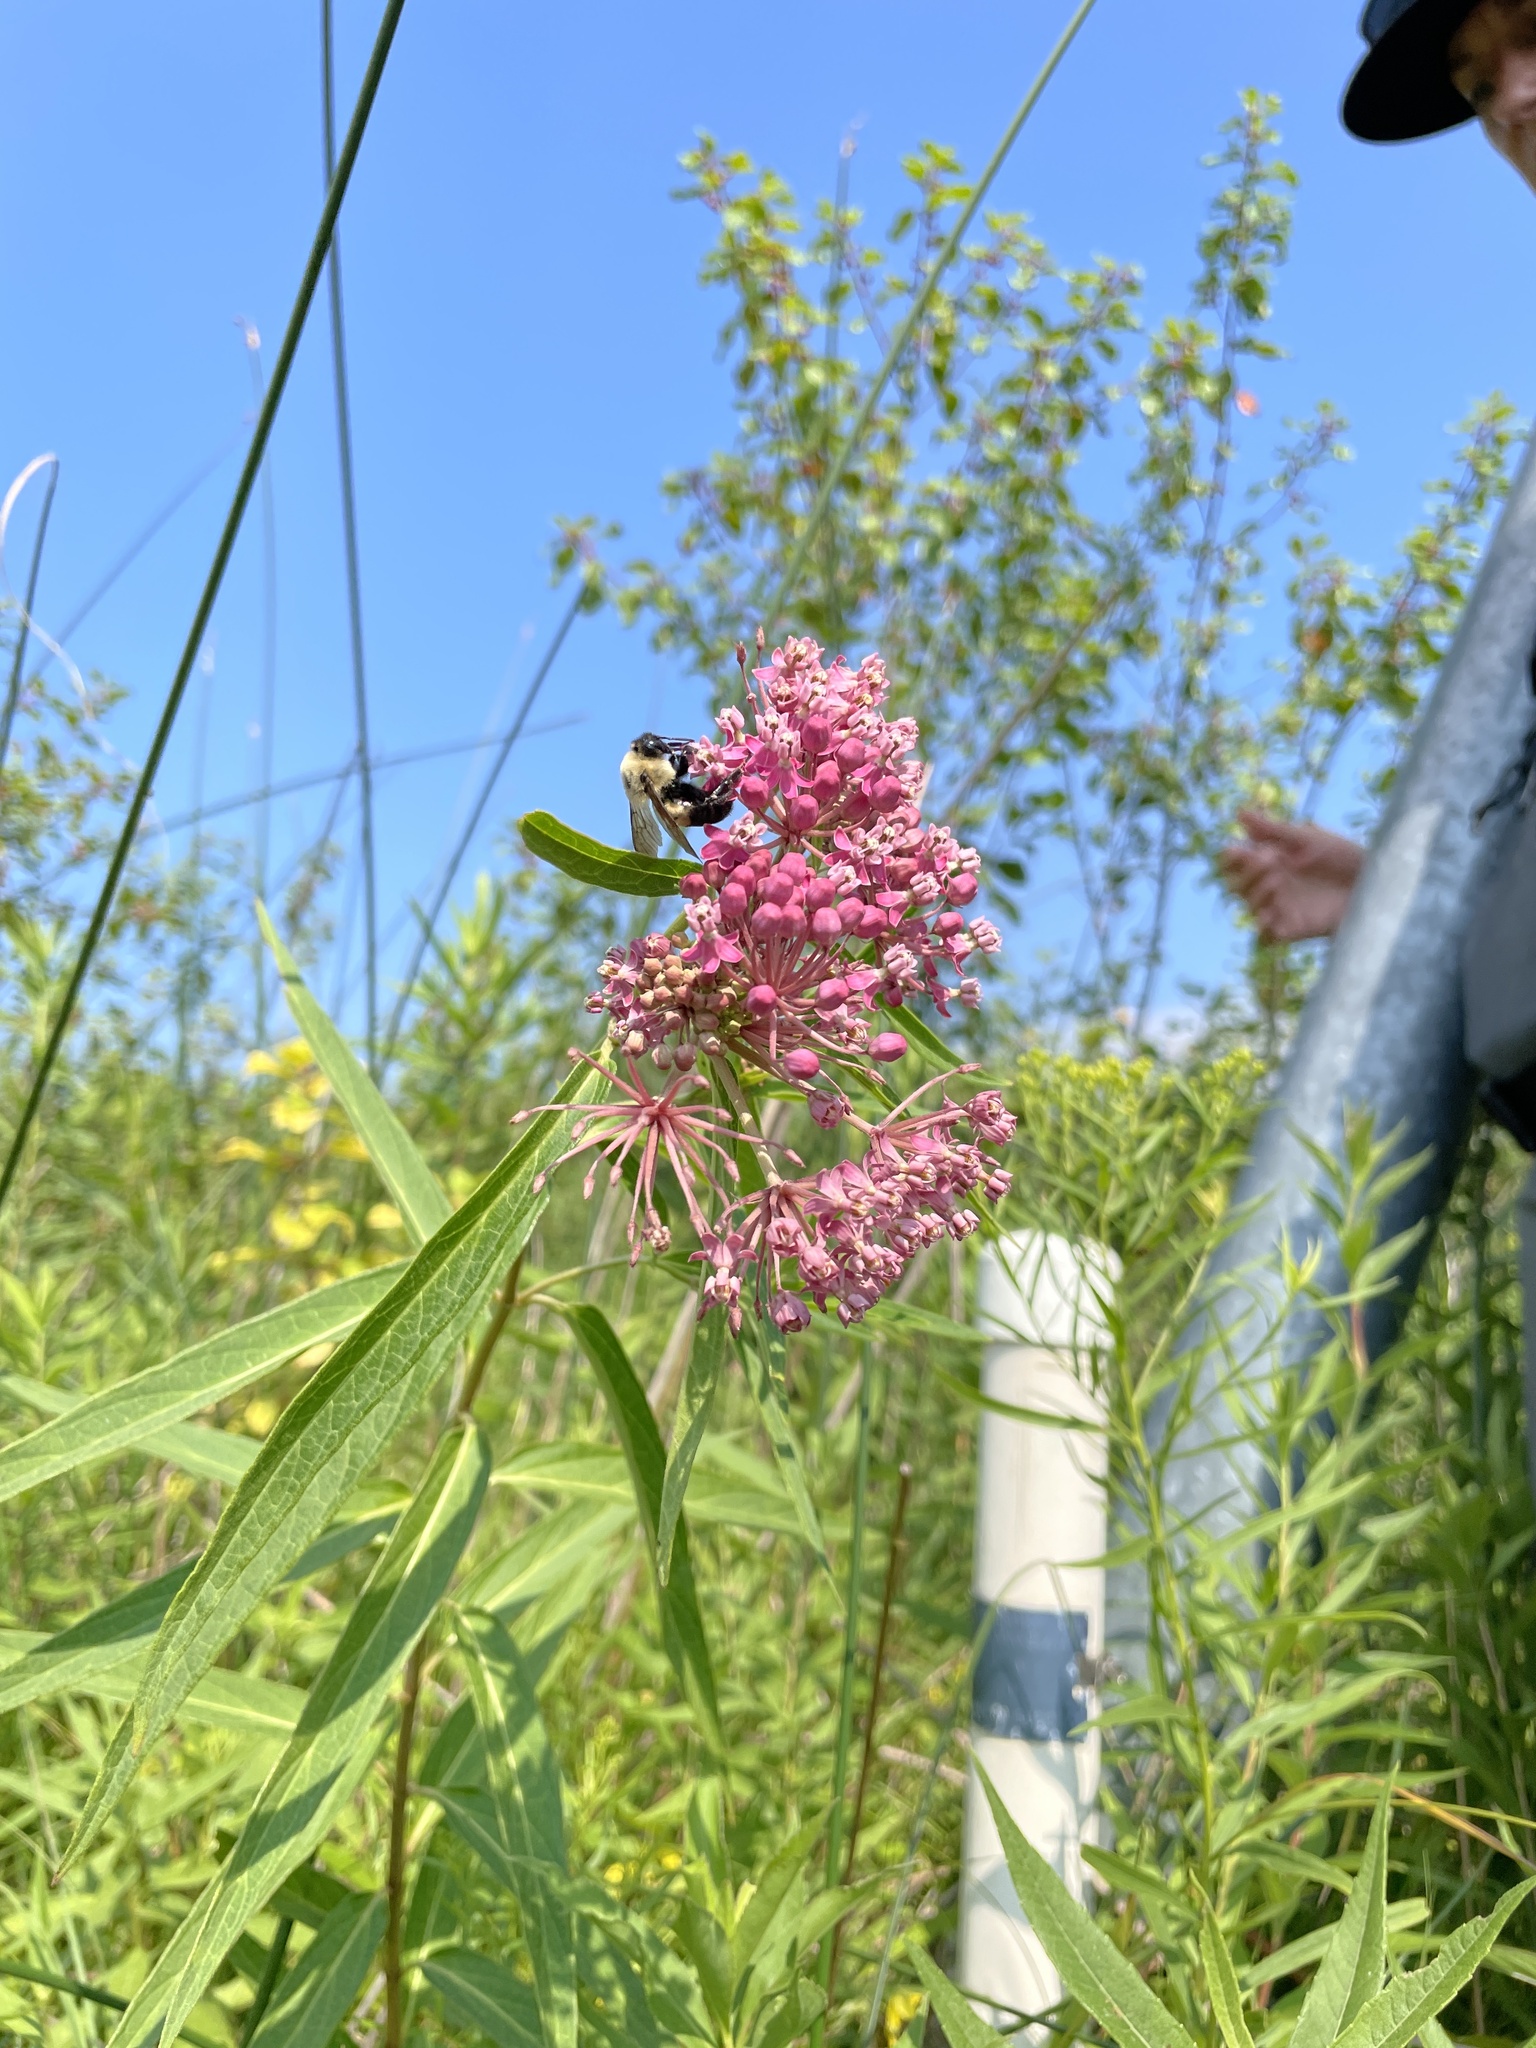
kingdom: Animalia
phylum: Arthropoda
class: Insecta
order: Hymenoptera
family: Apidae
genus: Bombus
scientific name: Bombus griseocollis
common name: Brown-belted bumble bee
